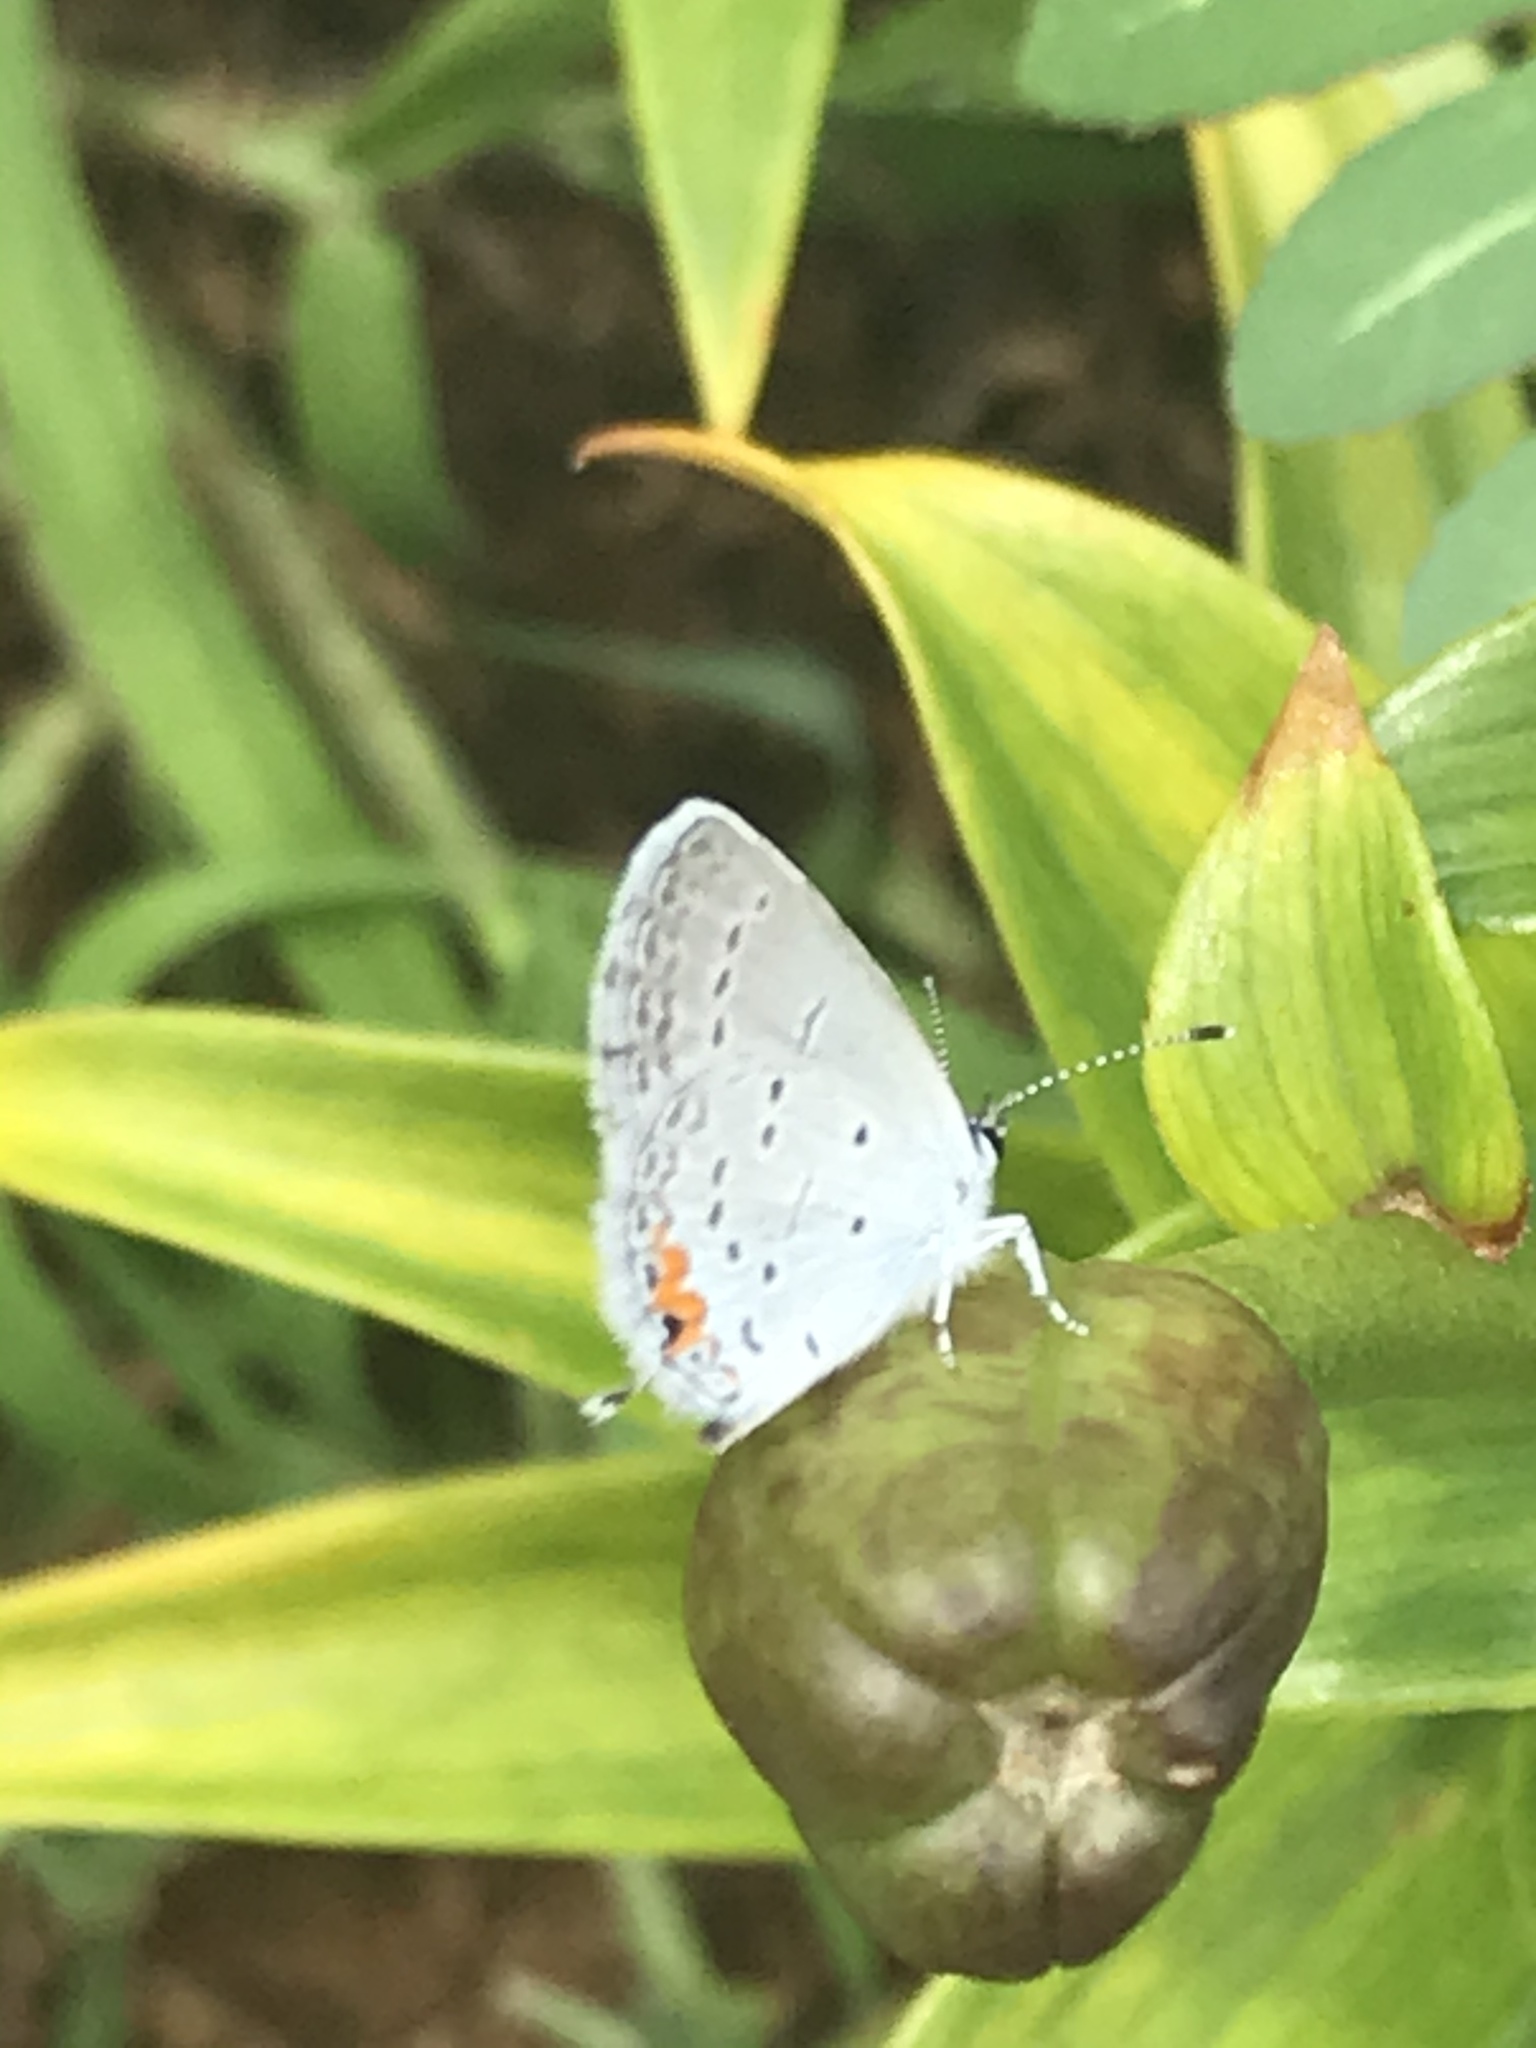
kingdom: Animalia
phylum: Arthropoda
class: Insecta
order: Lepidoptera
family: Lycaenidae
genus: Elkalyce
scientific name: Elkalyce comyntas
